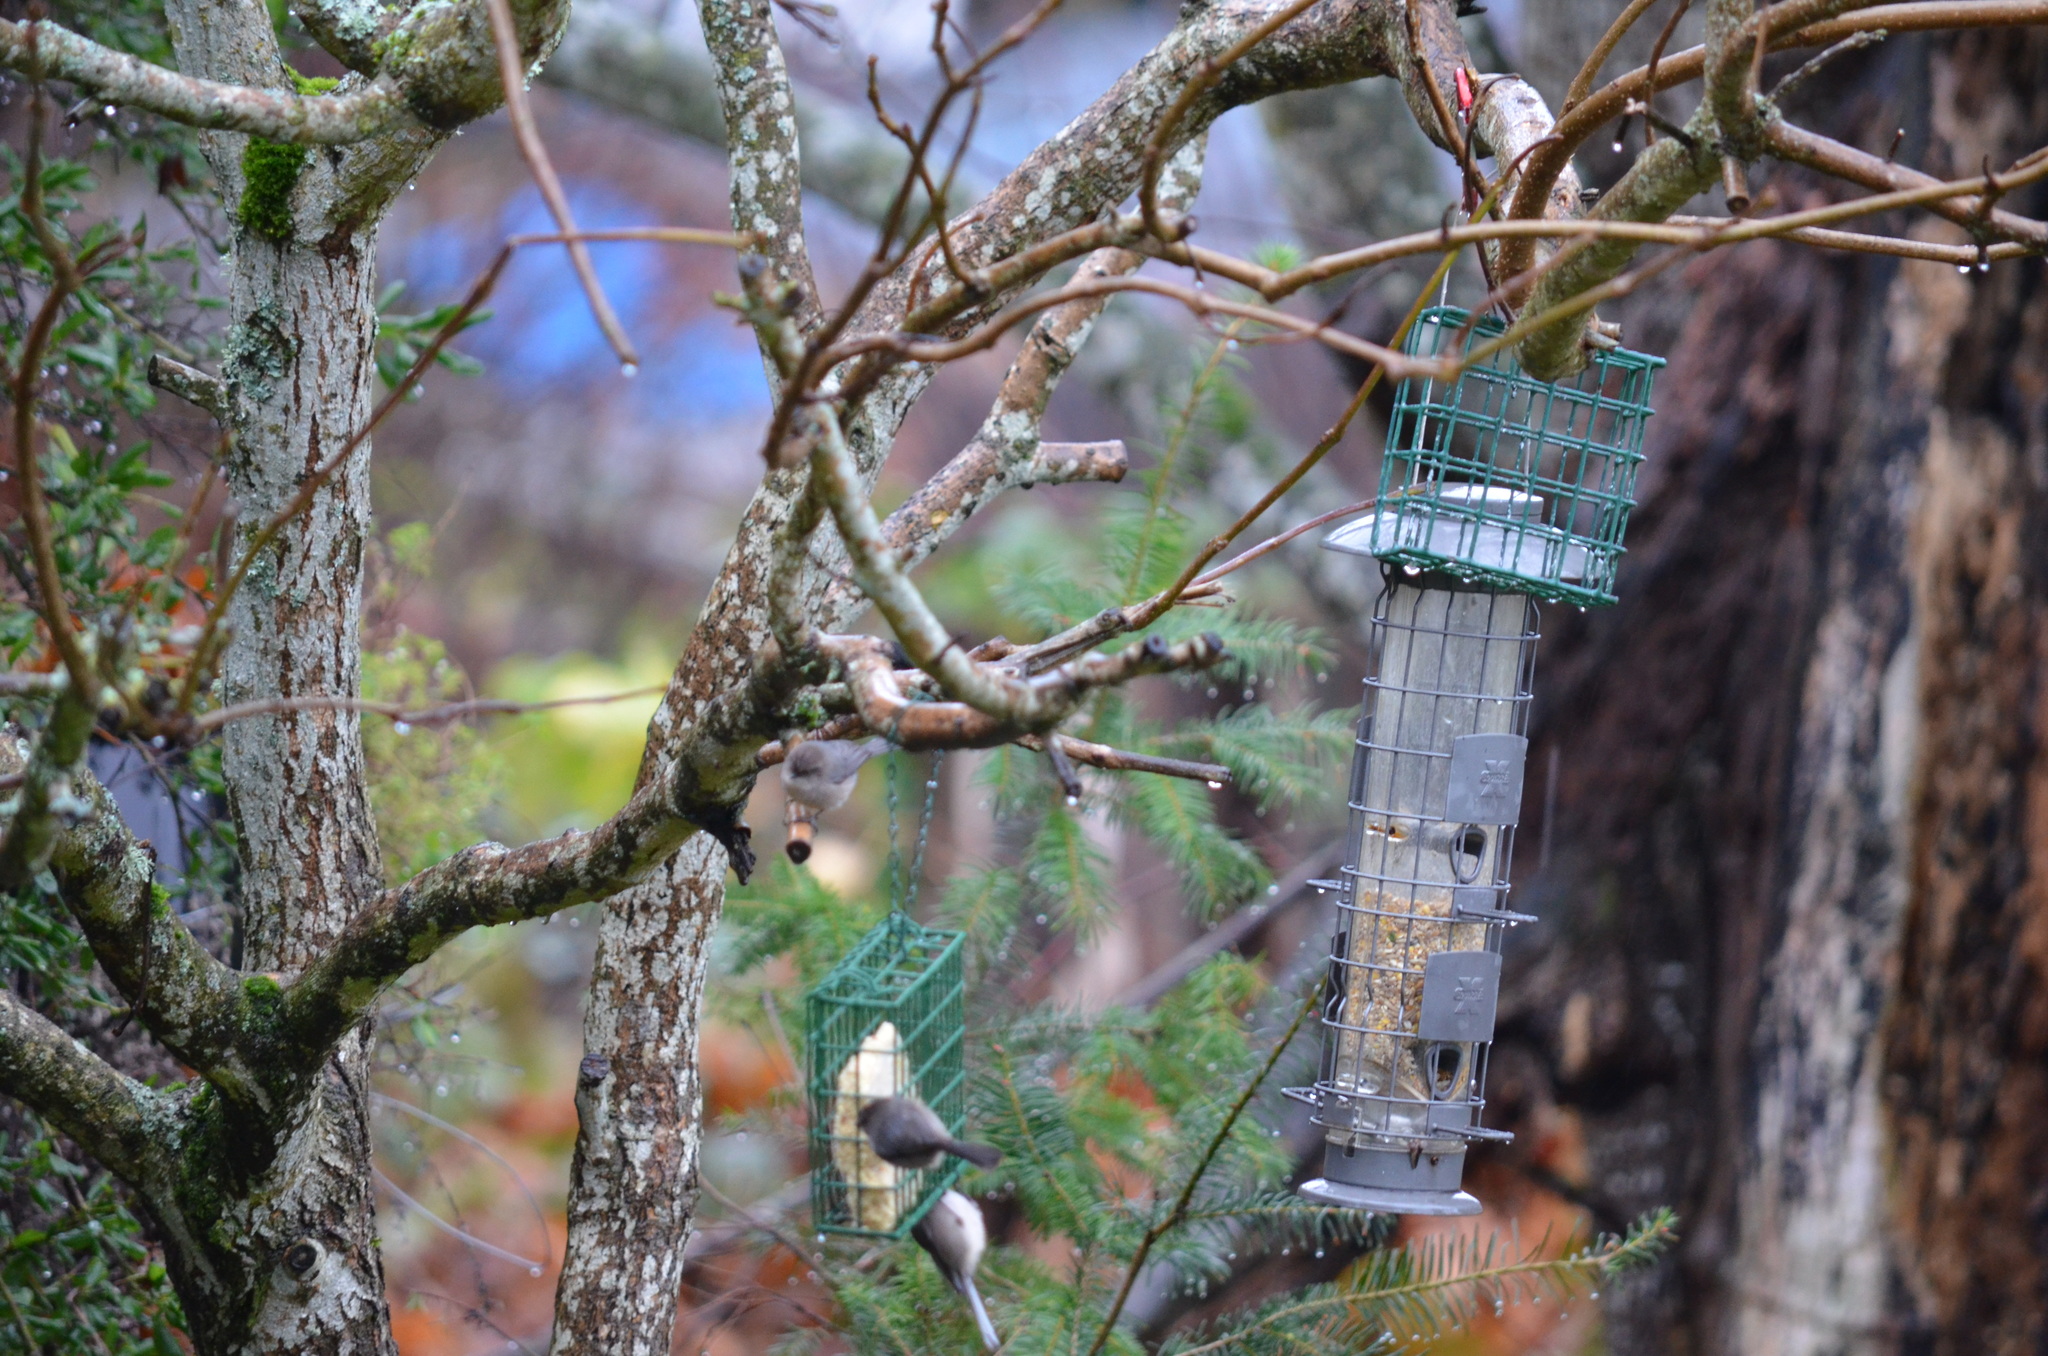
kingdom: Animalia
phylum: Chordata
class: Aves
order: Passeriformes
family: Aegithalidae
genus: Psaltriparus
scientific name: Psaltriparus minimus
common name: American bushtit
